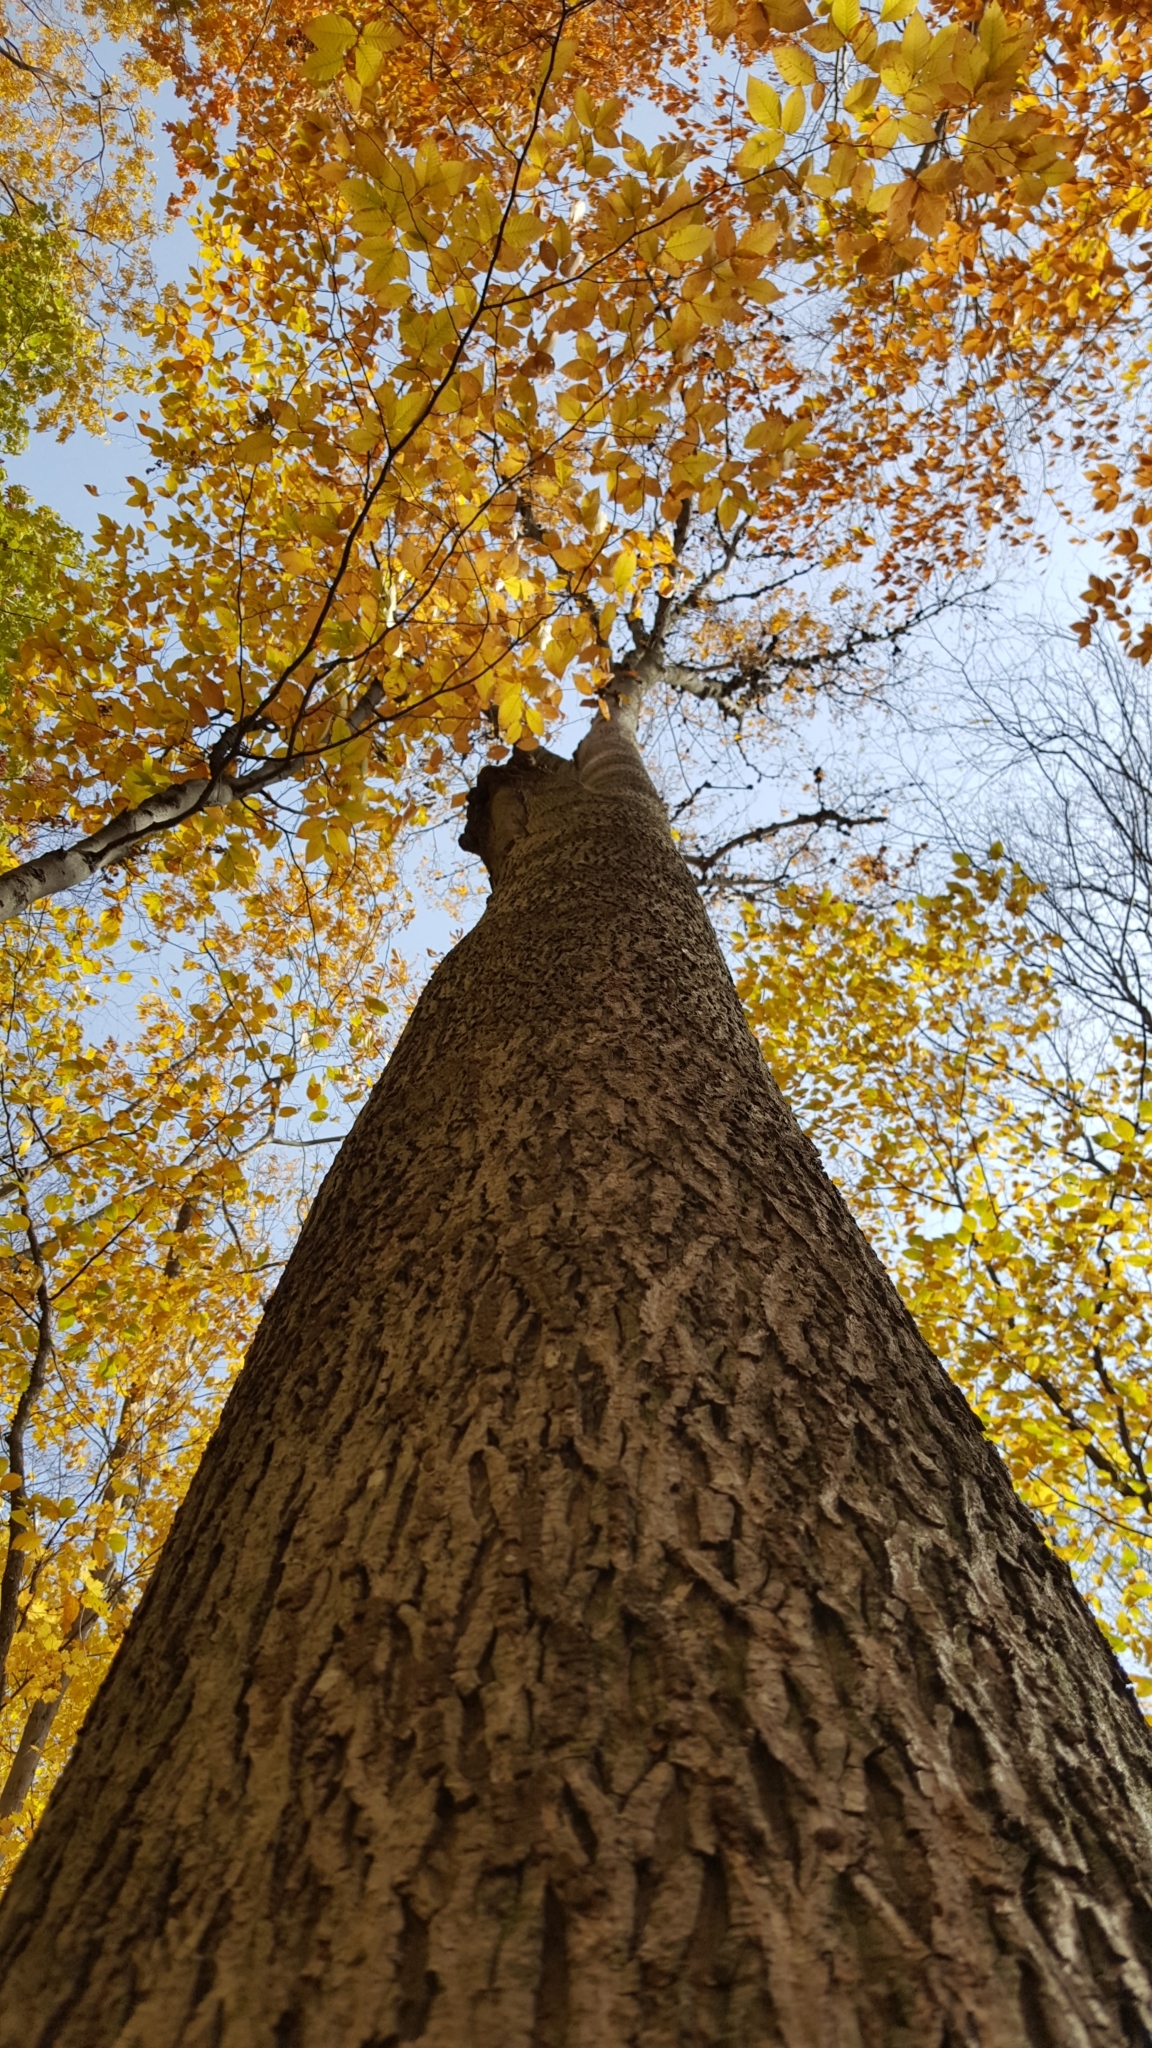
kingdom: Plantae
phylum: Tracheophyta
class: Magnoliopsida
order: Fagales
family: Juglandaceae
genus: Carya
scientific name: Carya cordiformis
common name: Bitternut hickory
